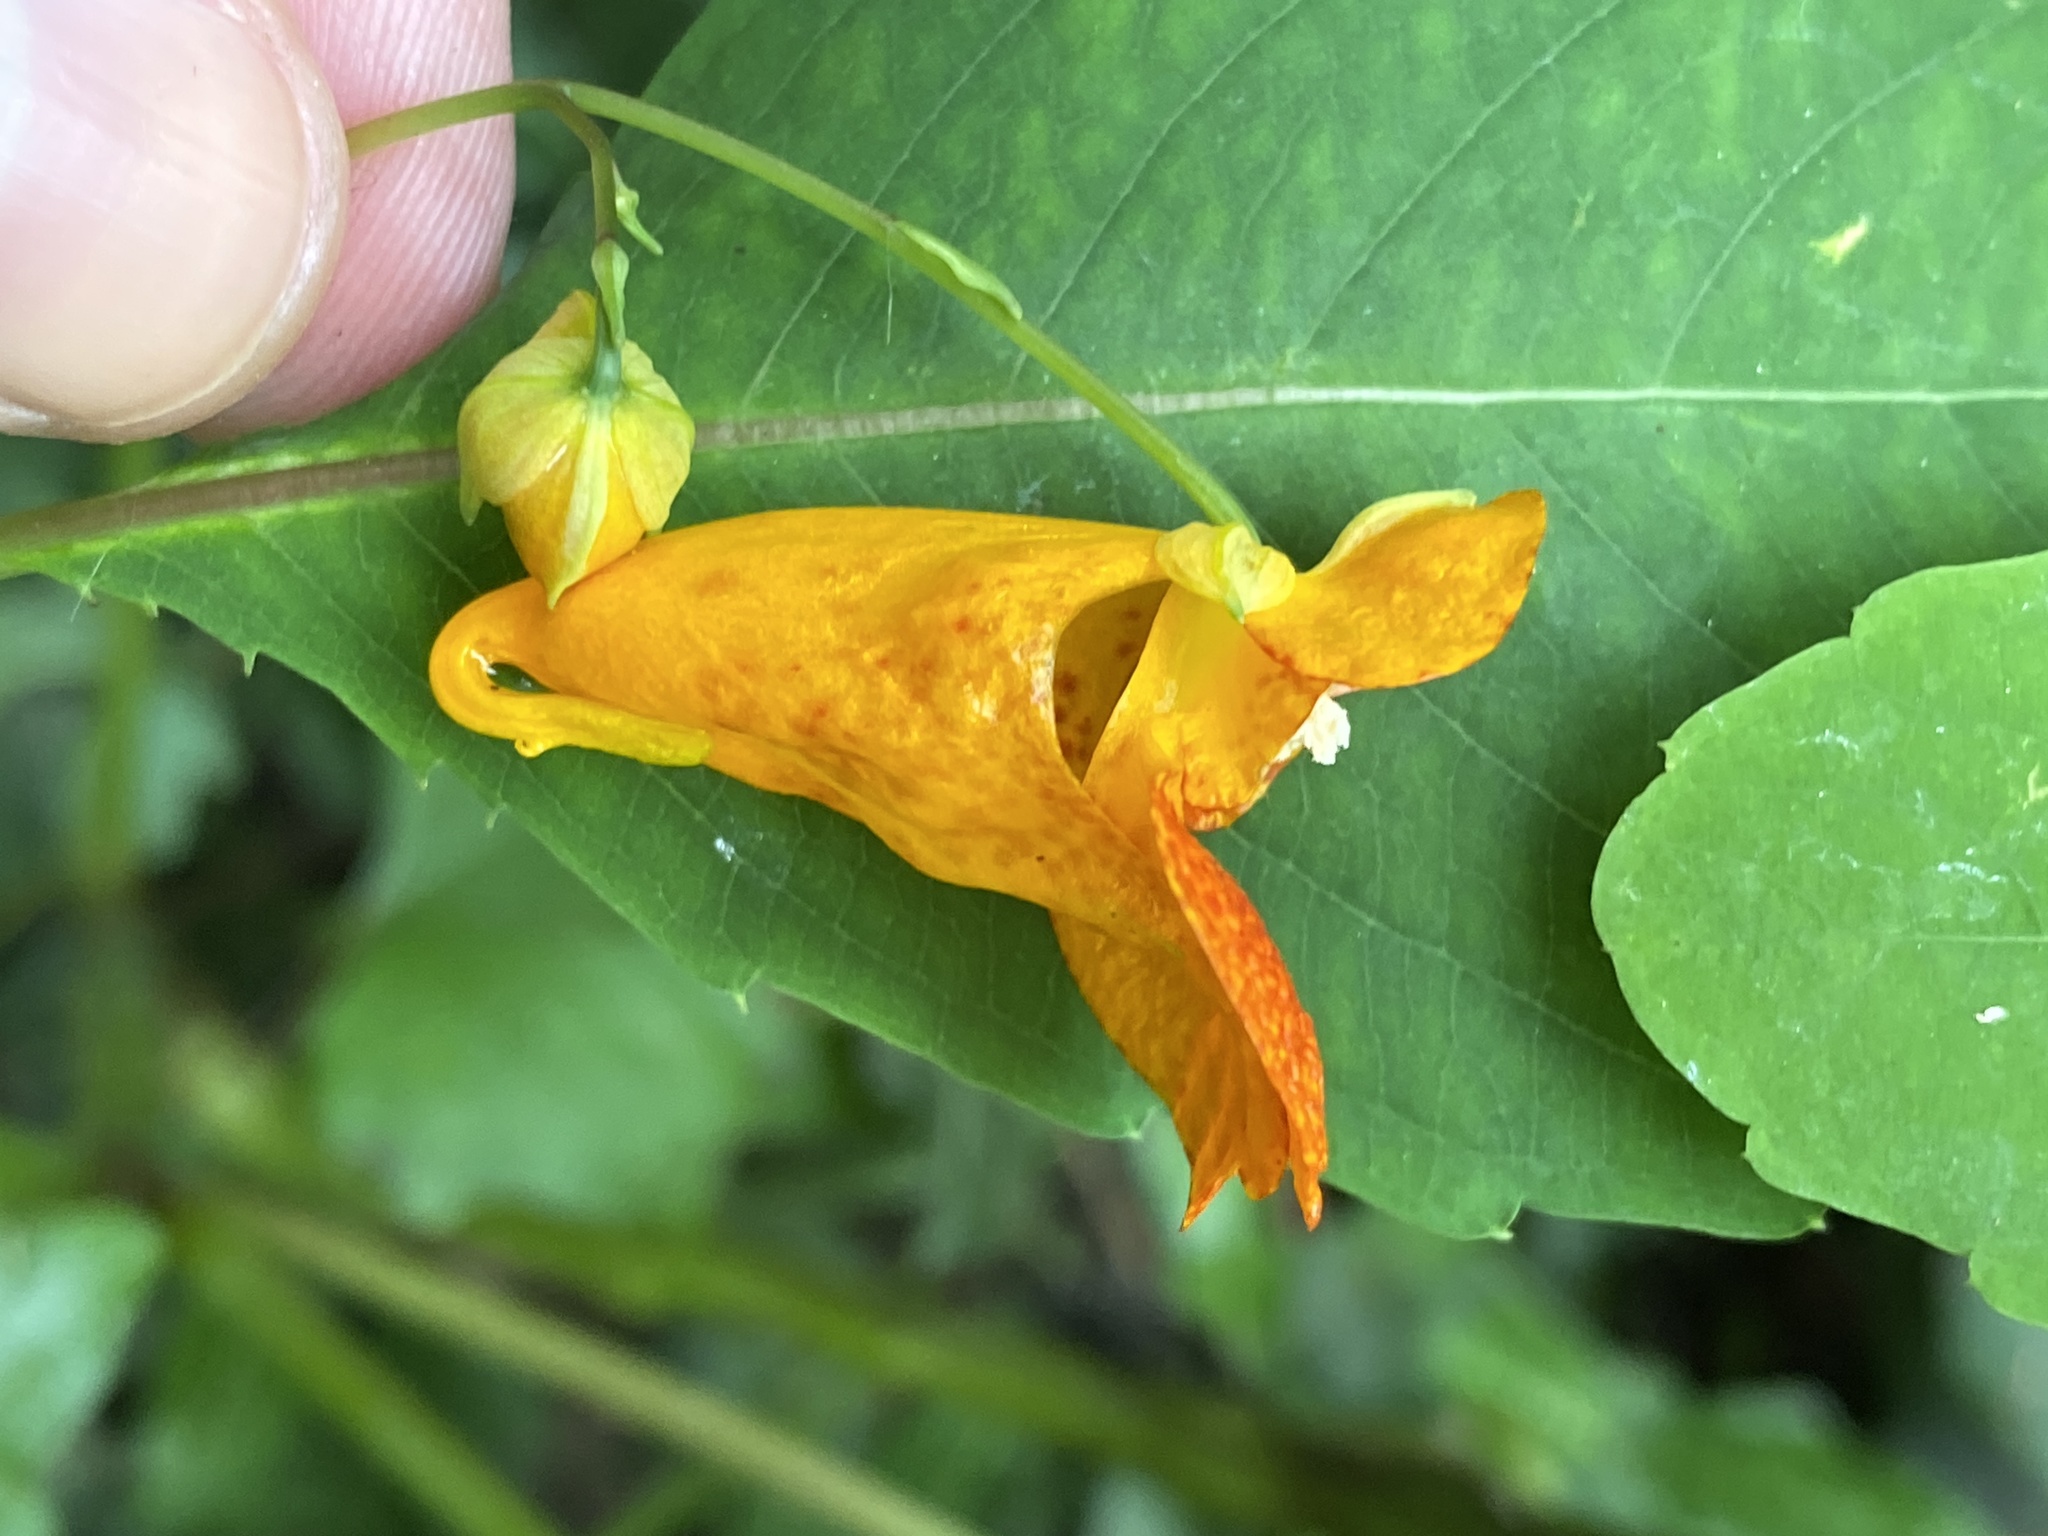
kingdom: Plantae
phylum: Tracheophyta
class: Magnoliopsida
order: Ericales
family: Balsaminaceae
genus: Impatiens
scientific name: Impatiens capensis
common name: Orange balsam
